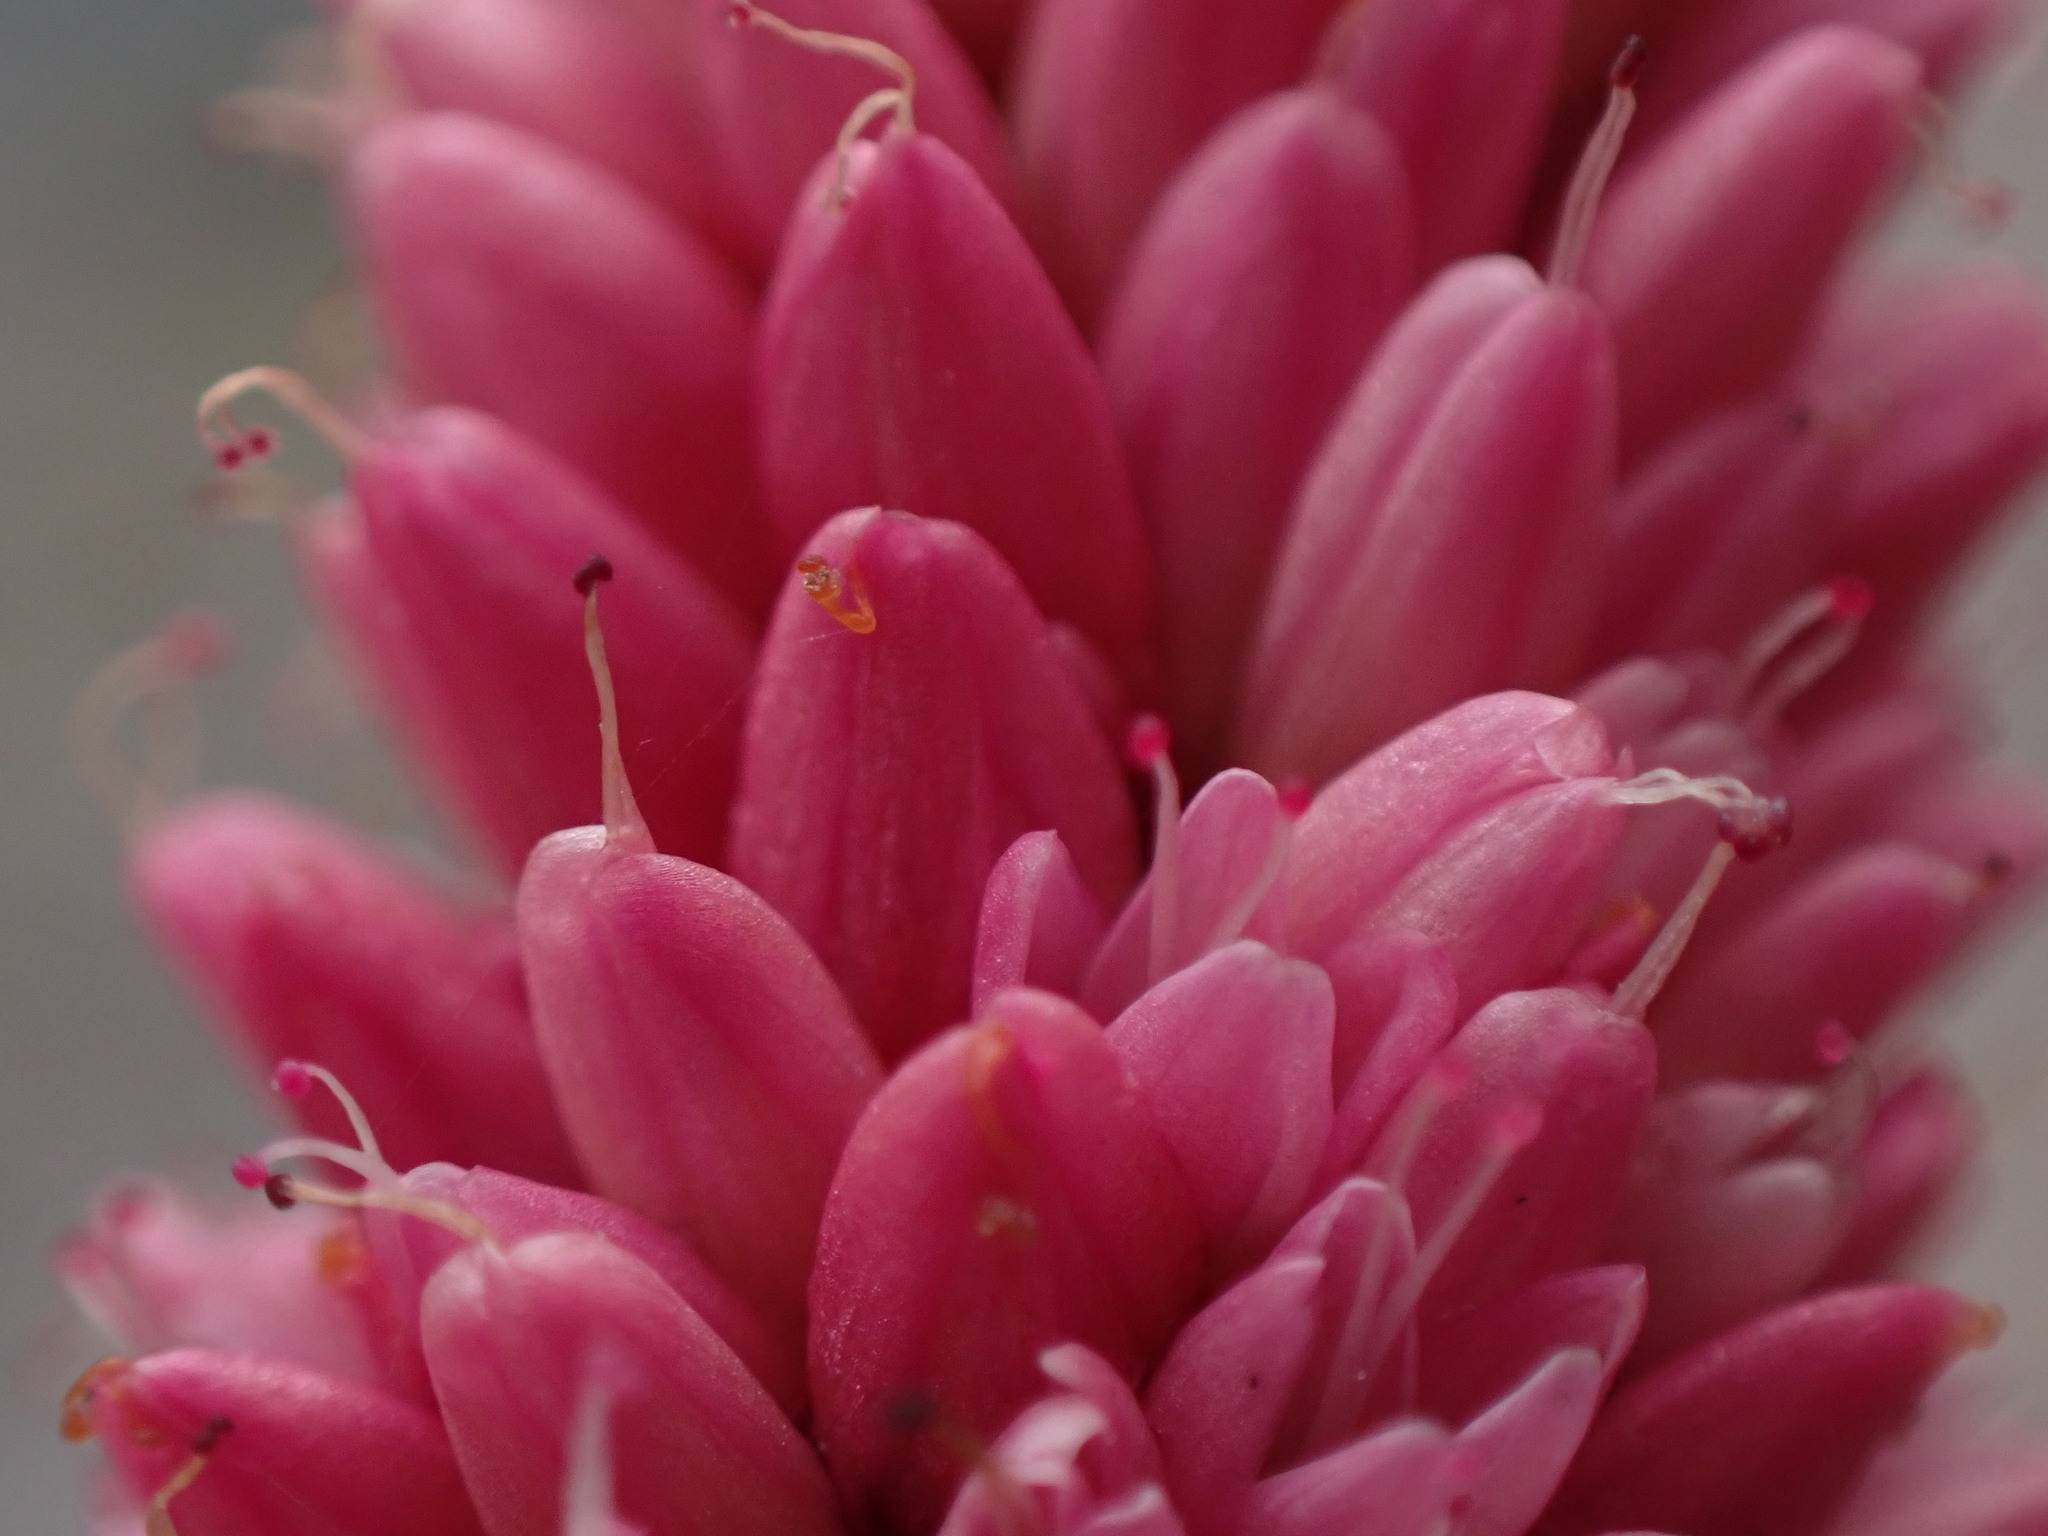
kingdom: Plantae
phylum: Tracheophyta
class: Magnoliopsida
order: Caryophyllales
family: Polygonaceae
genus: Persicaria
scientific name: Persicaria amphibia
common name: Amphibious bistort
